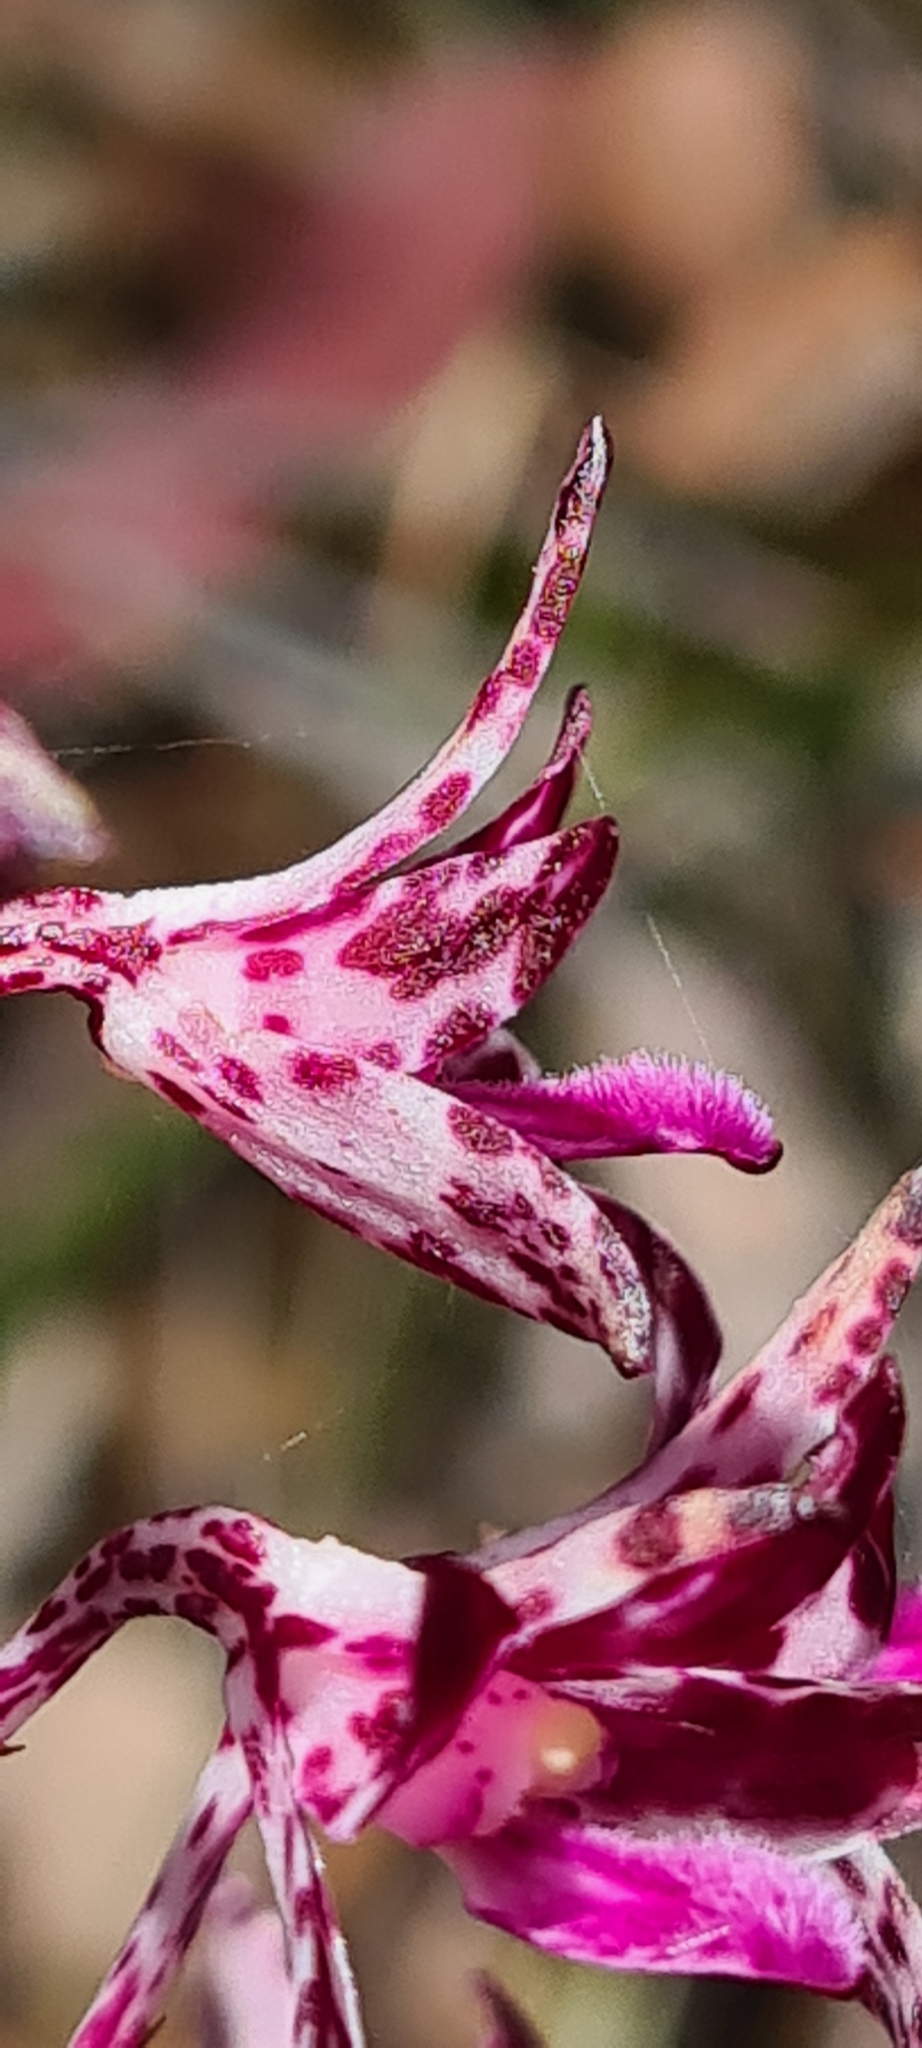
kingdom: Plantae
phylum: Tracheophyta
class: Liliopsida
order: Asparagales
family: Orchidaceae
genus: Dipodium
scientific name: Dipodium variegatum
